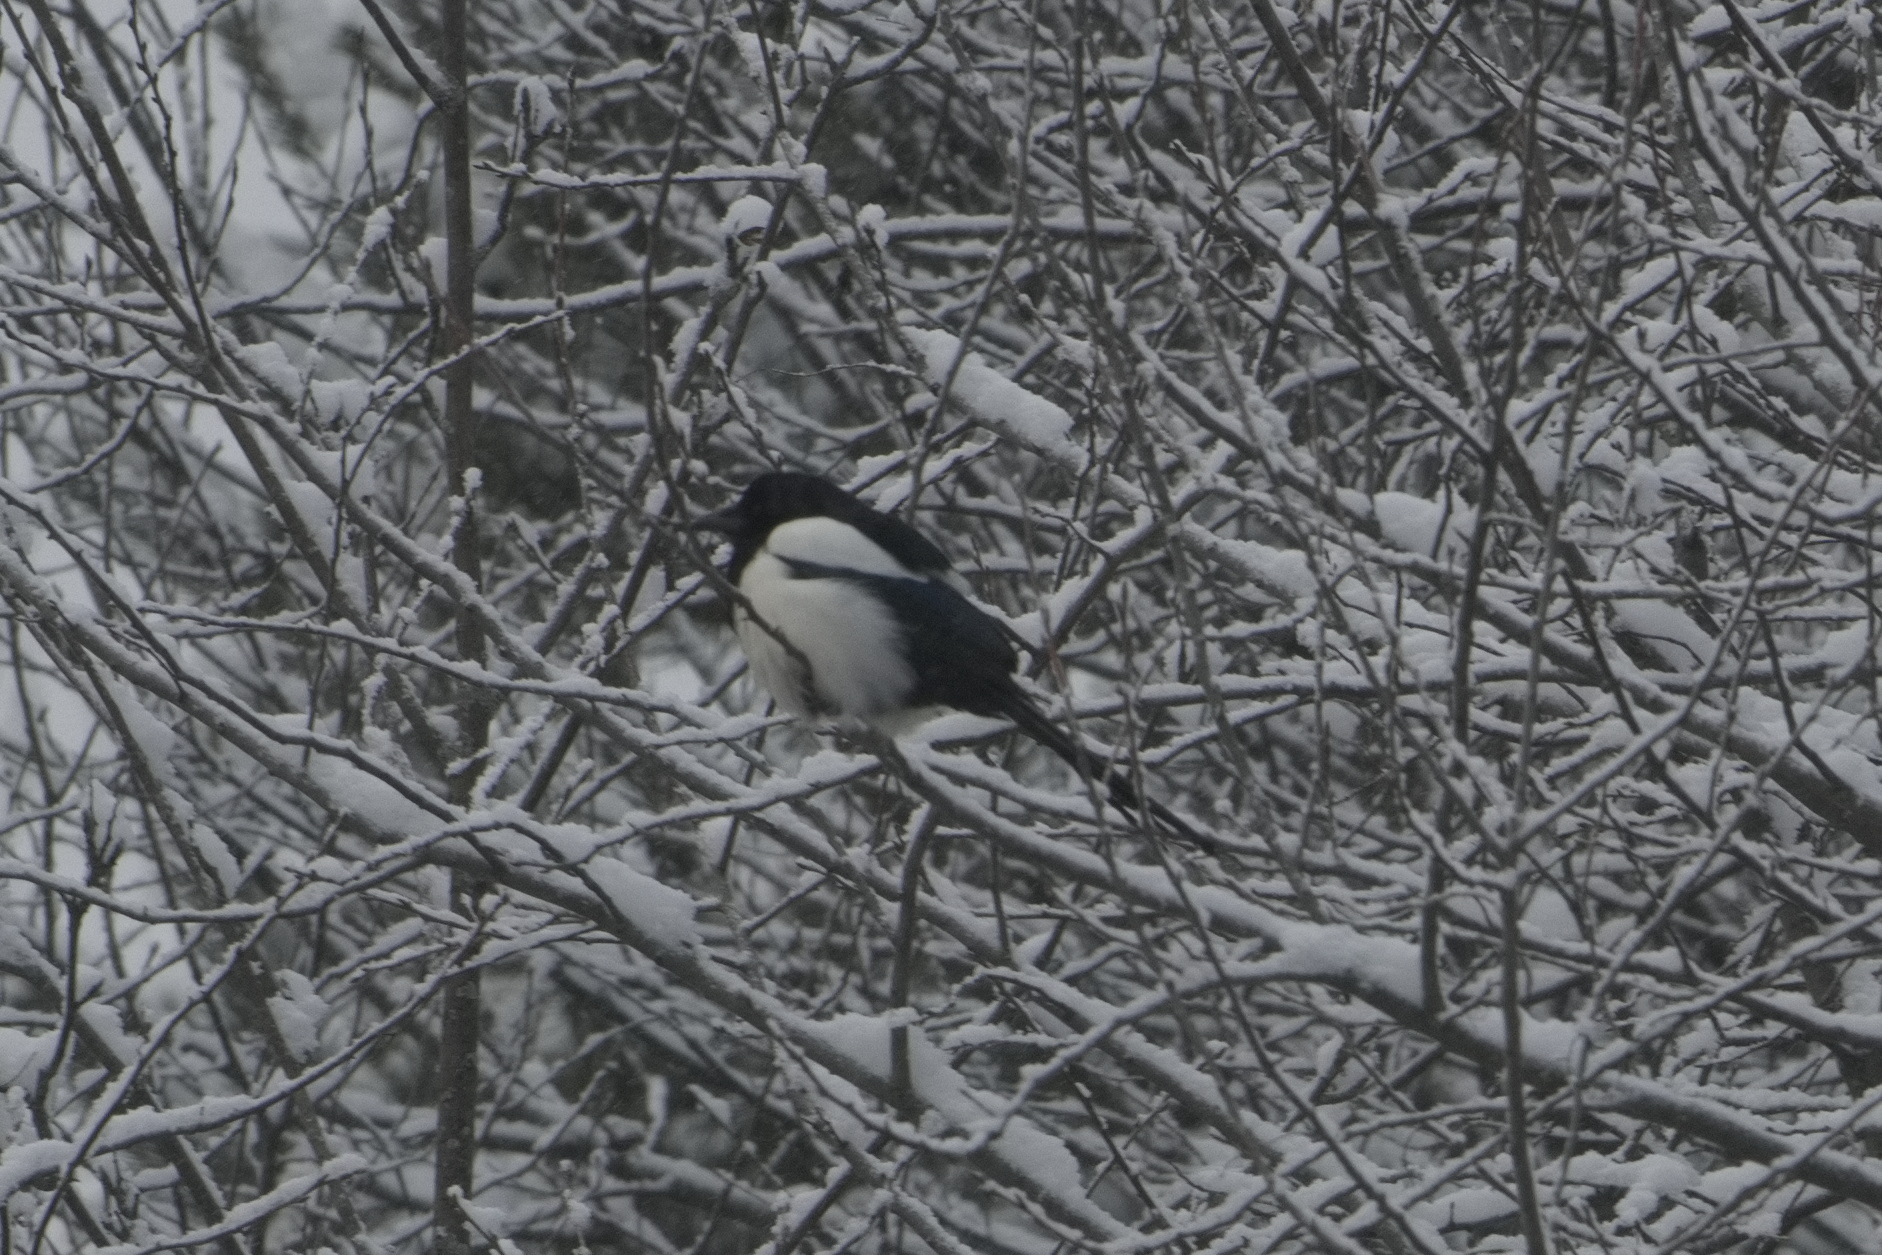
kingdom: Animalia
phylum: Chordata
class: Aves
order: Passeriformes
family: Corvidae
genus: Pica
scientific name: Pica pica
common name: Eurasian magpie
